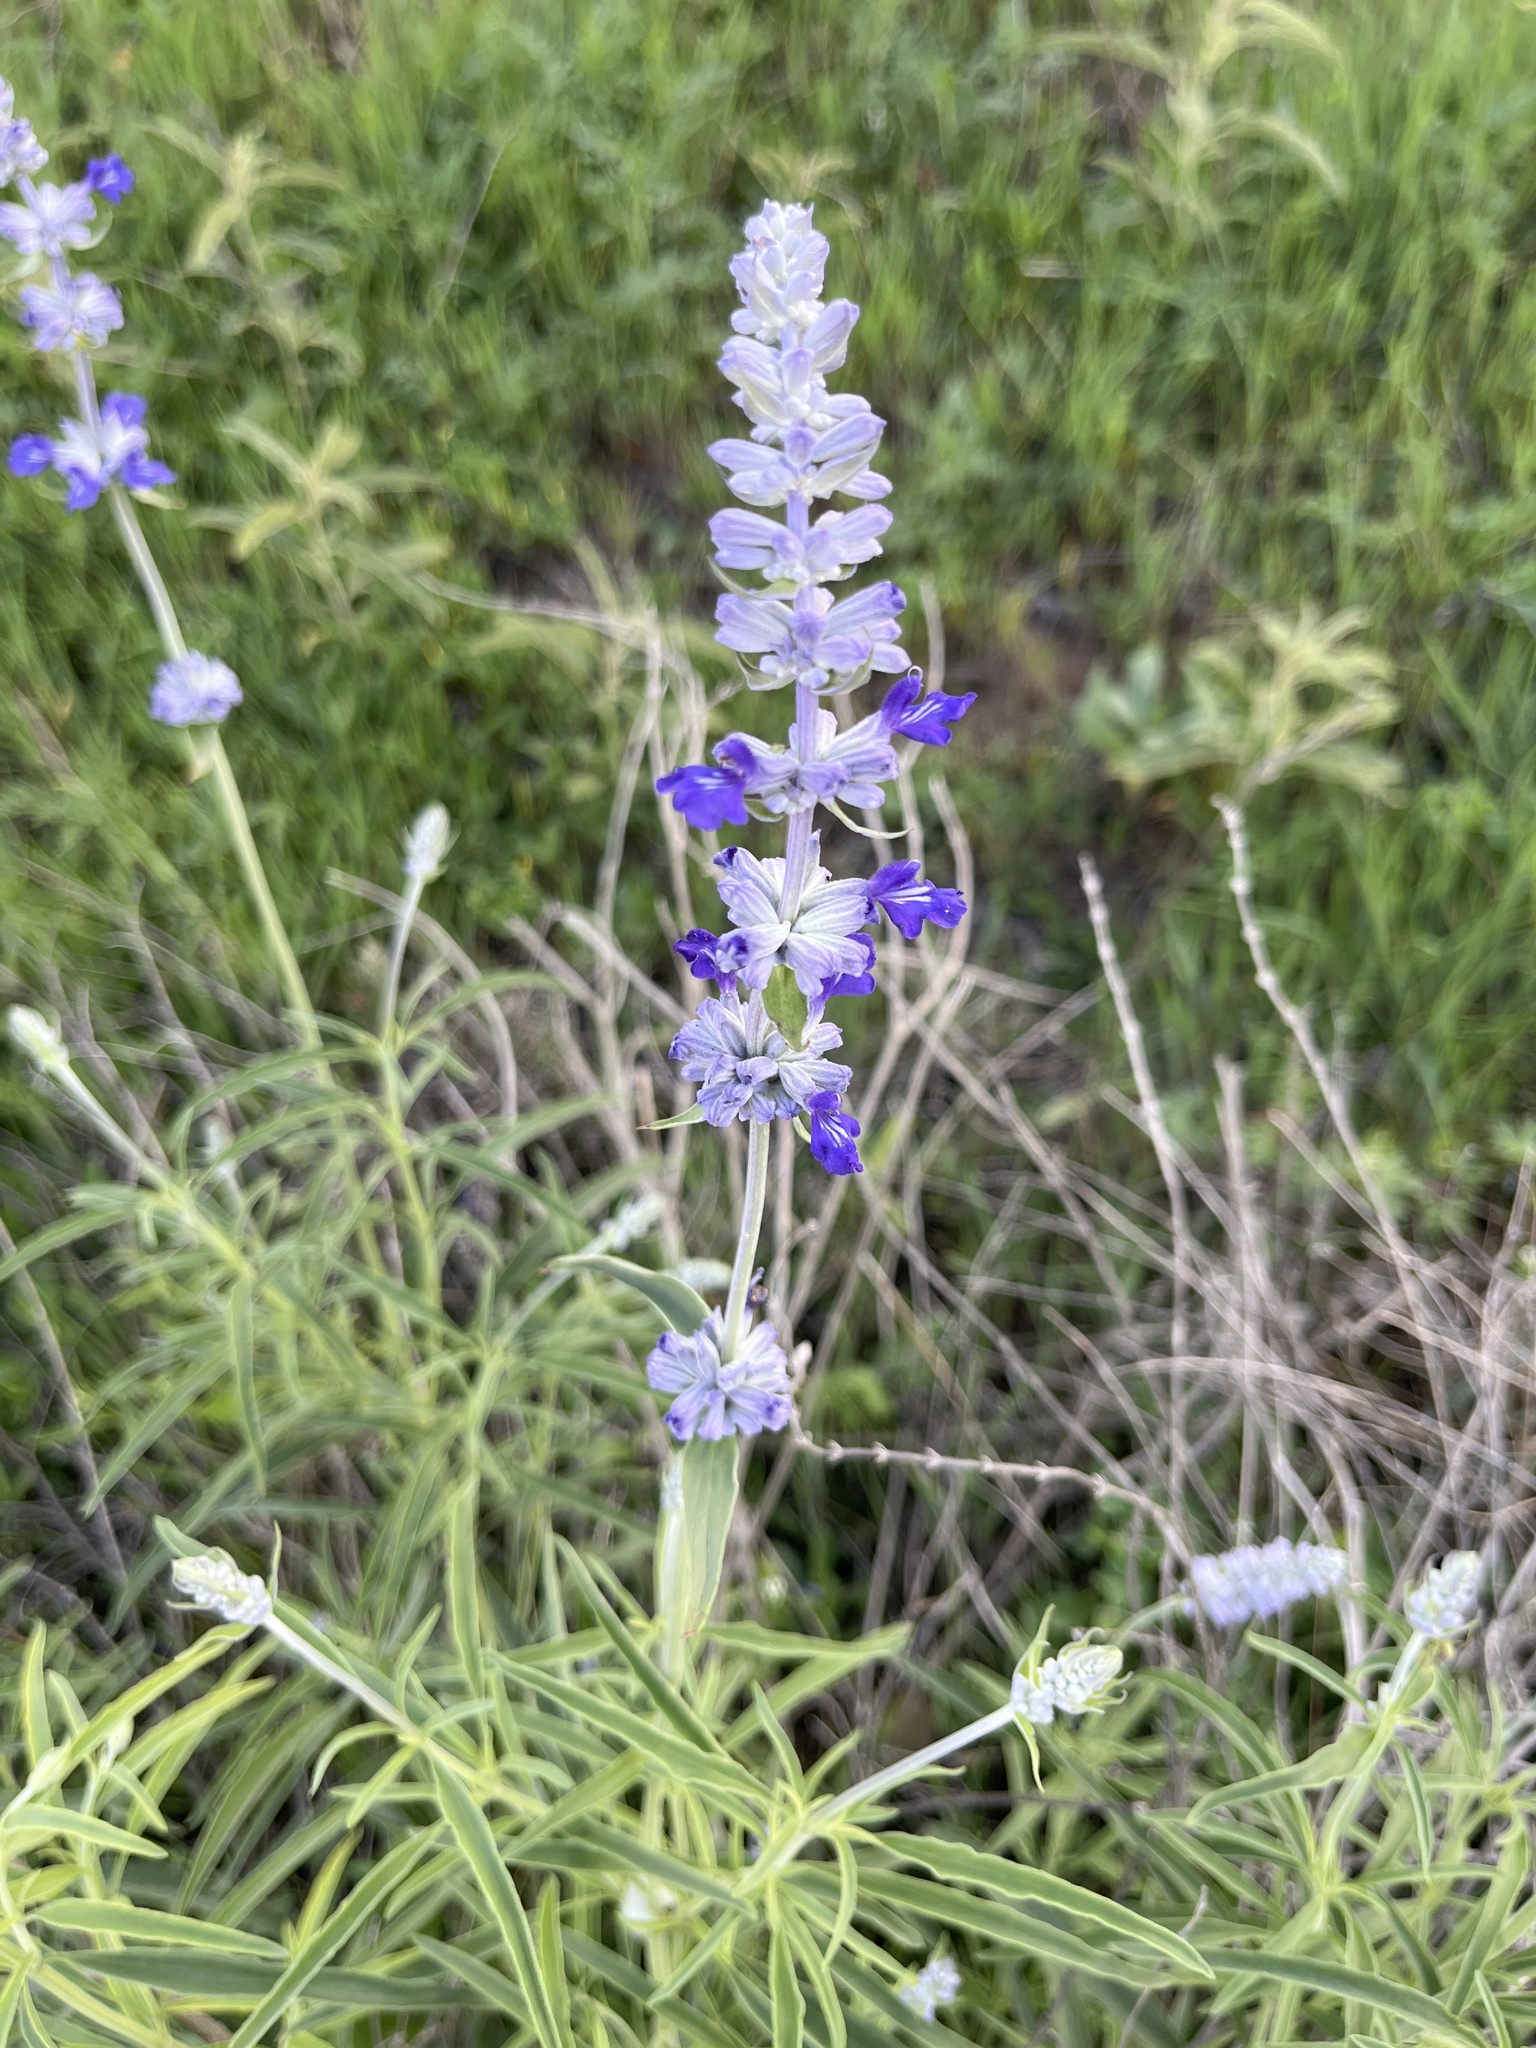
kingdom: Plantae
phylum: Tracheophyta
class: Magnoliopsida
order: Lamiales
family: Lamiaceae
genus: Salvia
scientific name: Salvia farinacea
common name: Mealy sage
